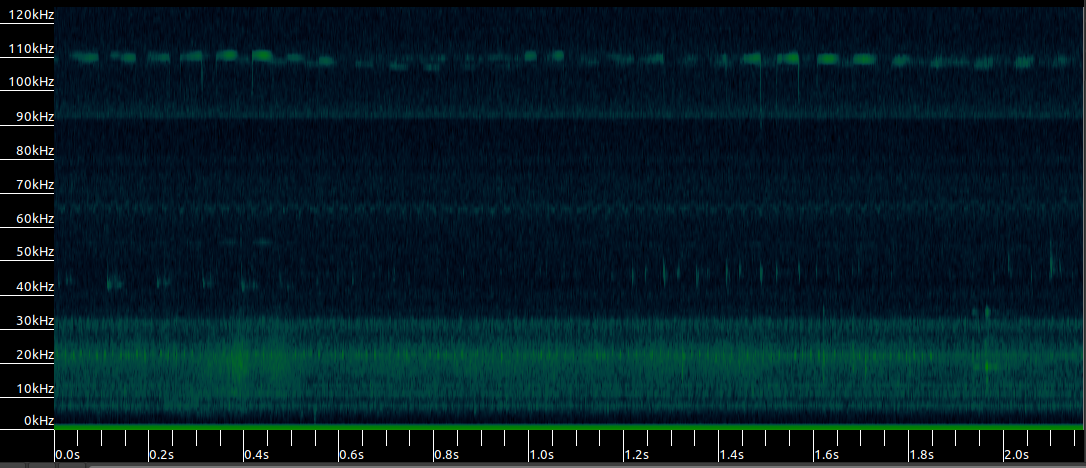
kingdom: Animalia
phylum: Chordata
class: Mammalia
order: Chiroptera
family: Rhinolophidae
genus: Rhinolophus
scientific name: Rhinolophus hipposideros
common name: Lesser horseshoe bat
